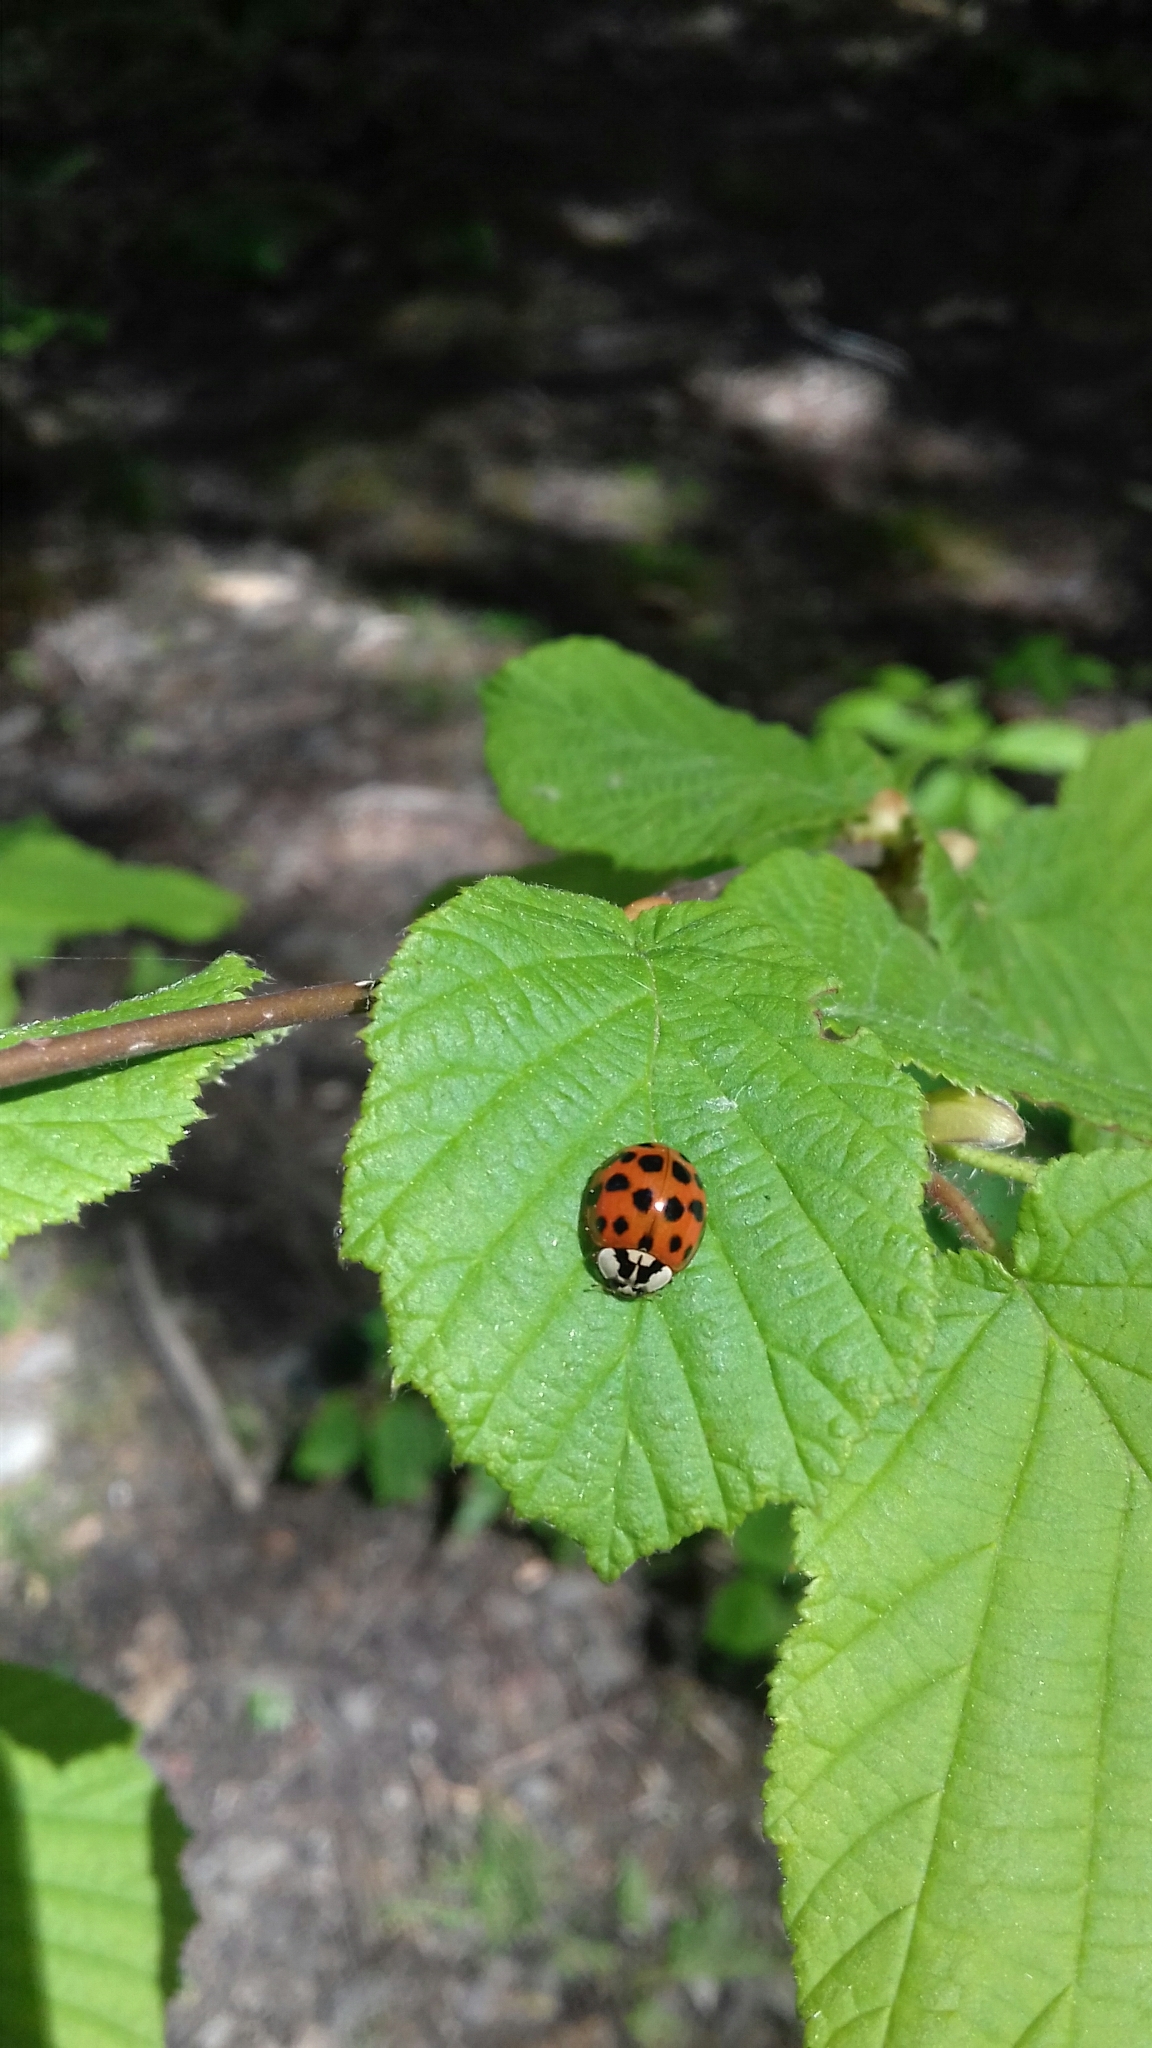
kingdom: Animalia
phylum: Arthropoda
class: Insecta
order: Coleoptera
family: Coccinellidae
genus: Harmonia
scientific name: Harmonia axyridis
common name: Harlequin ladybird
